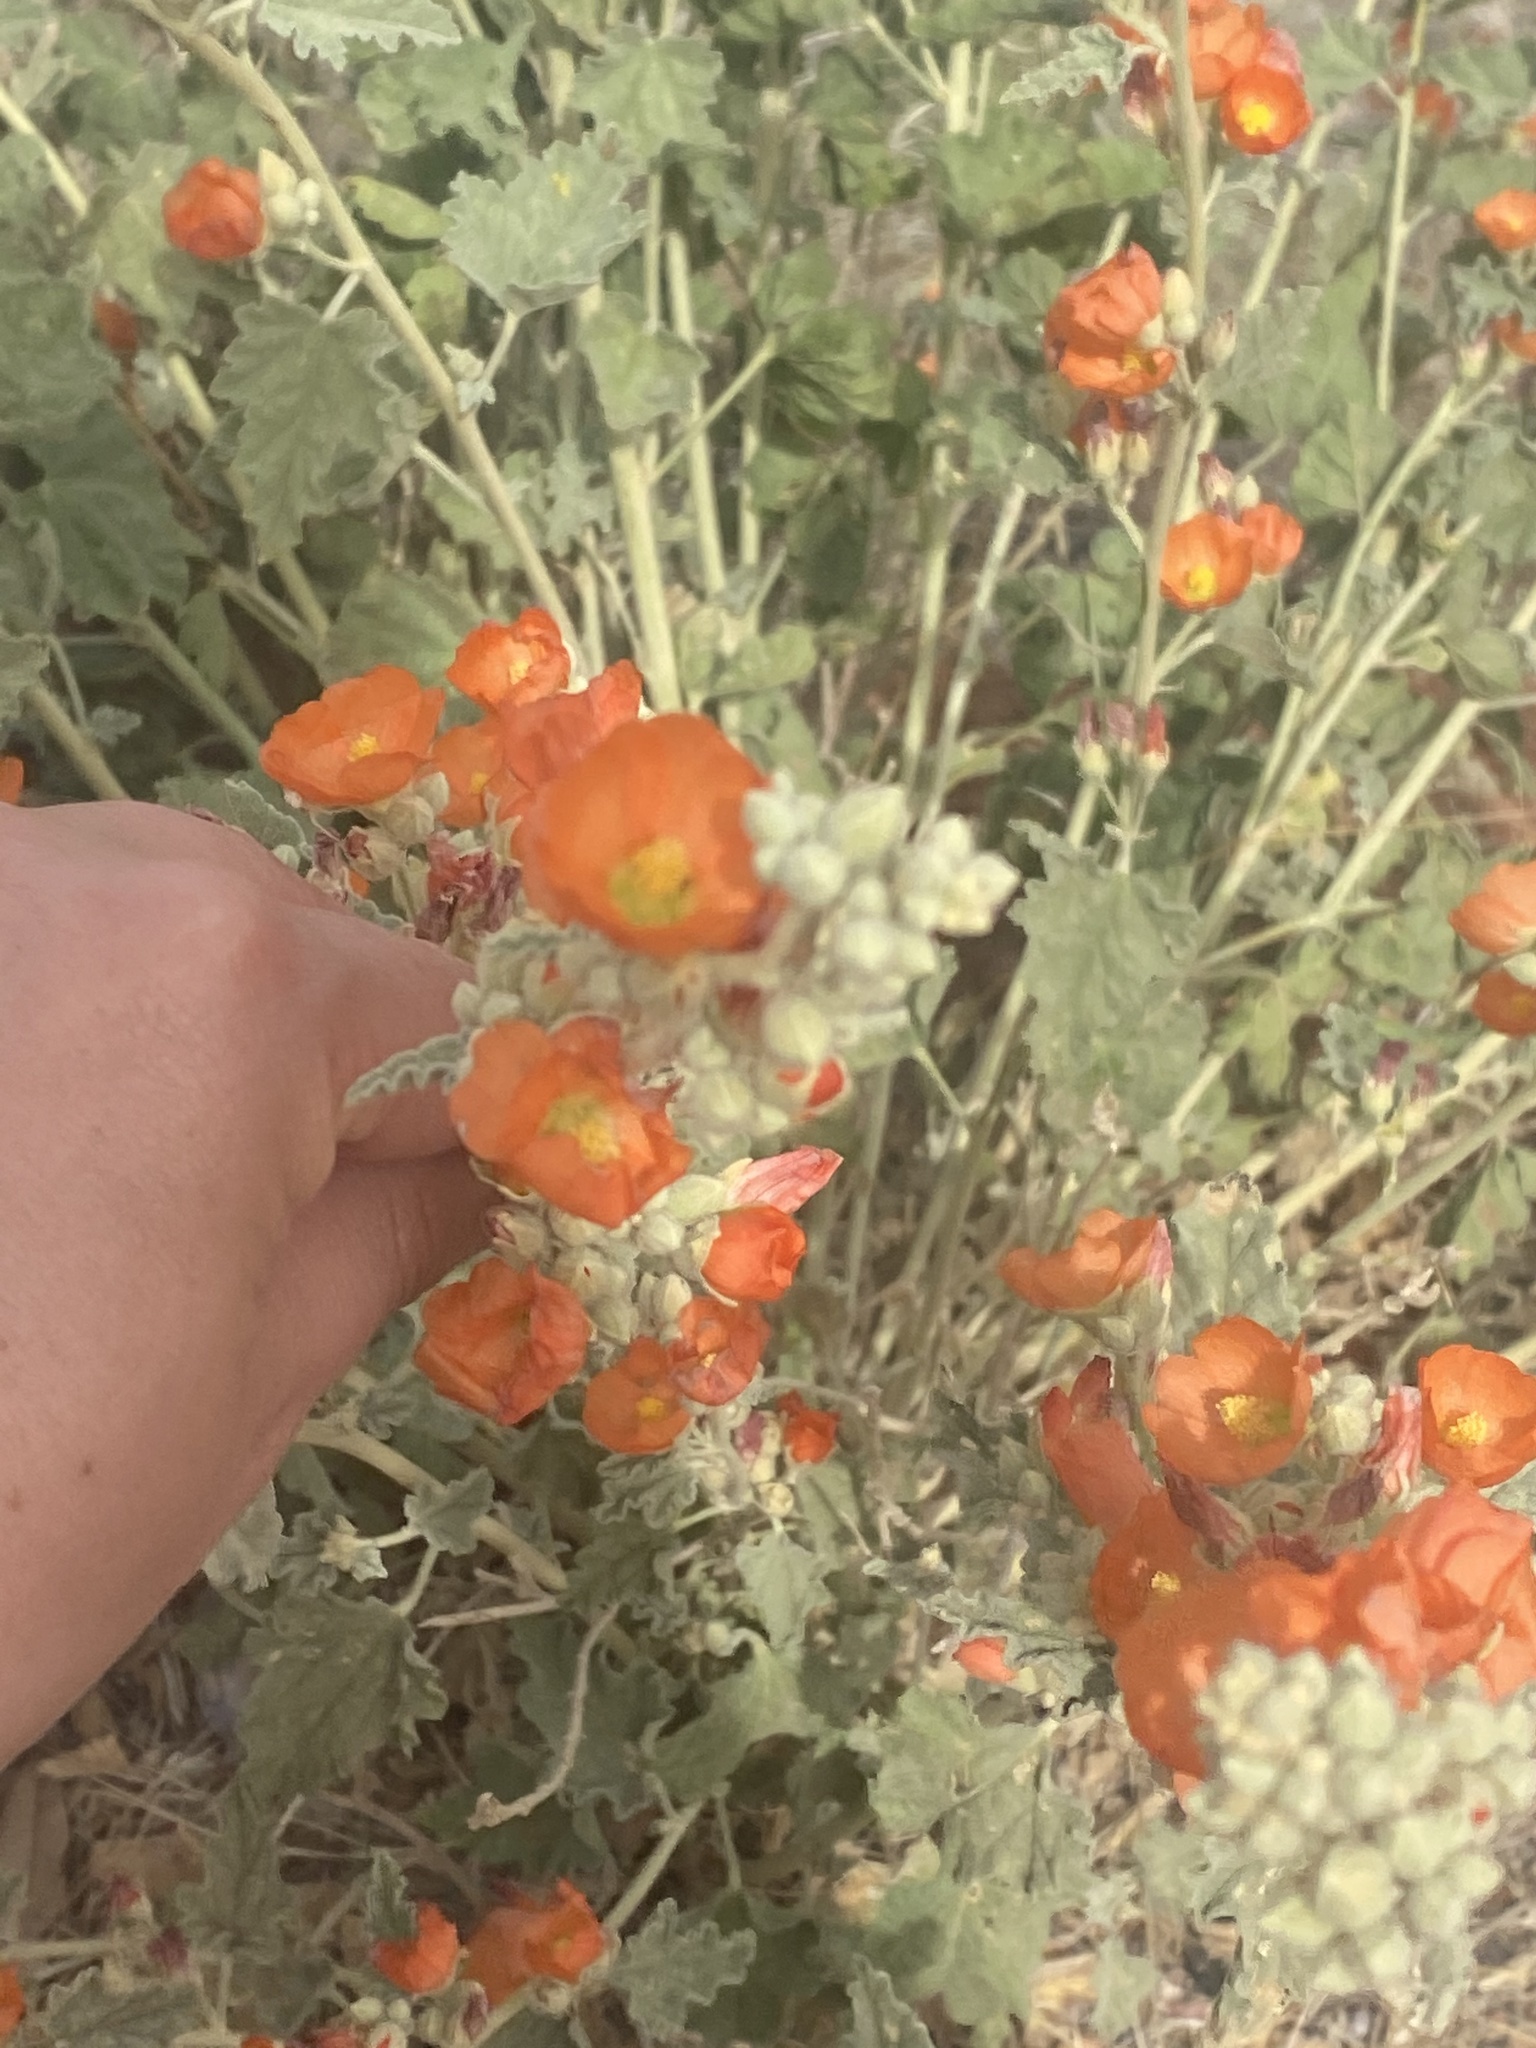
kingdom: Plantae
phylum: Tracheophyta
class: Magnoliopsida
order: Malvales
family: Malvaceae
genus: Sphaeralcea
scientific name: Sphaeralcea ambigua
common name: Apricot globe-mallow
